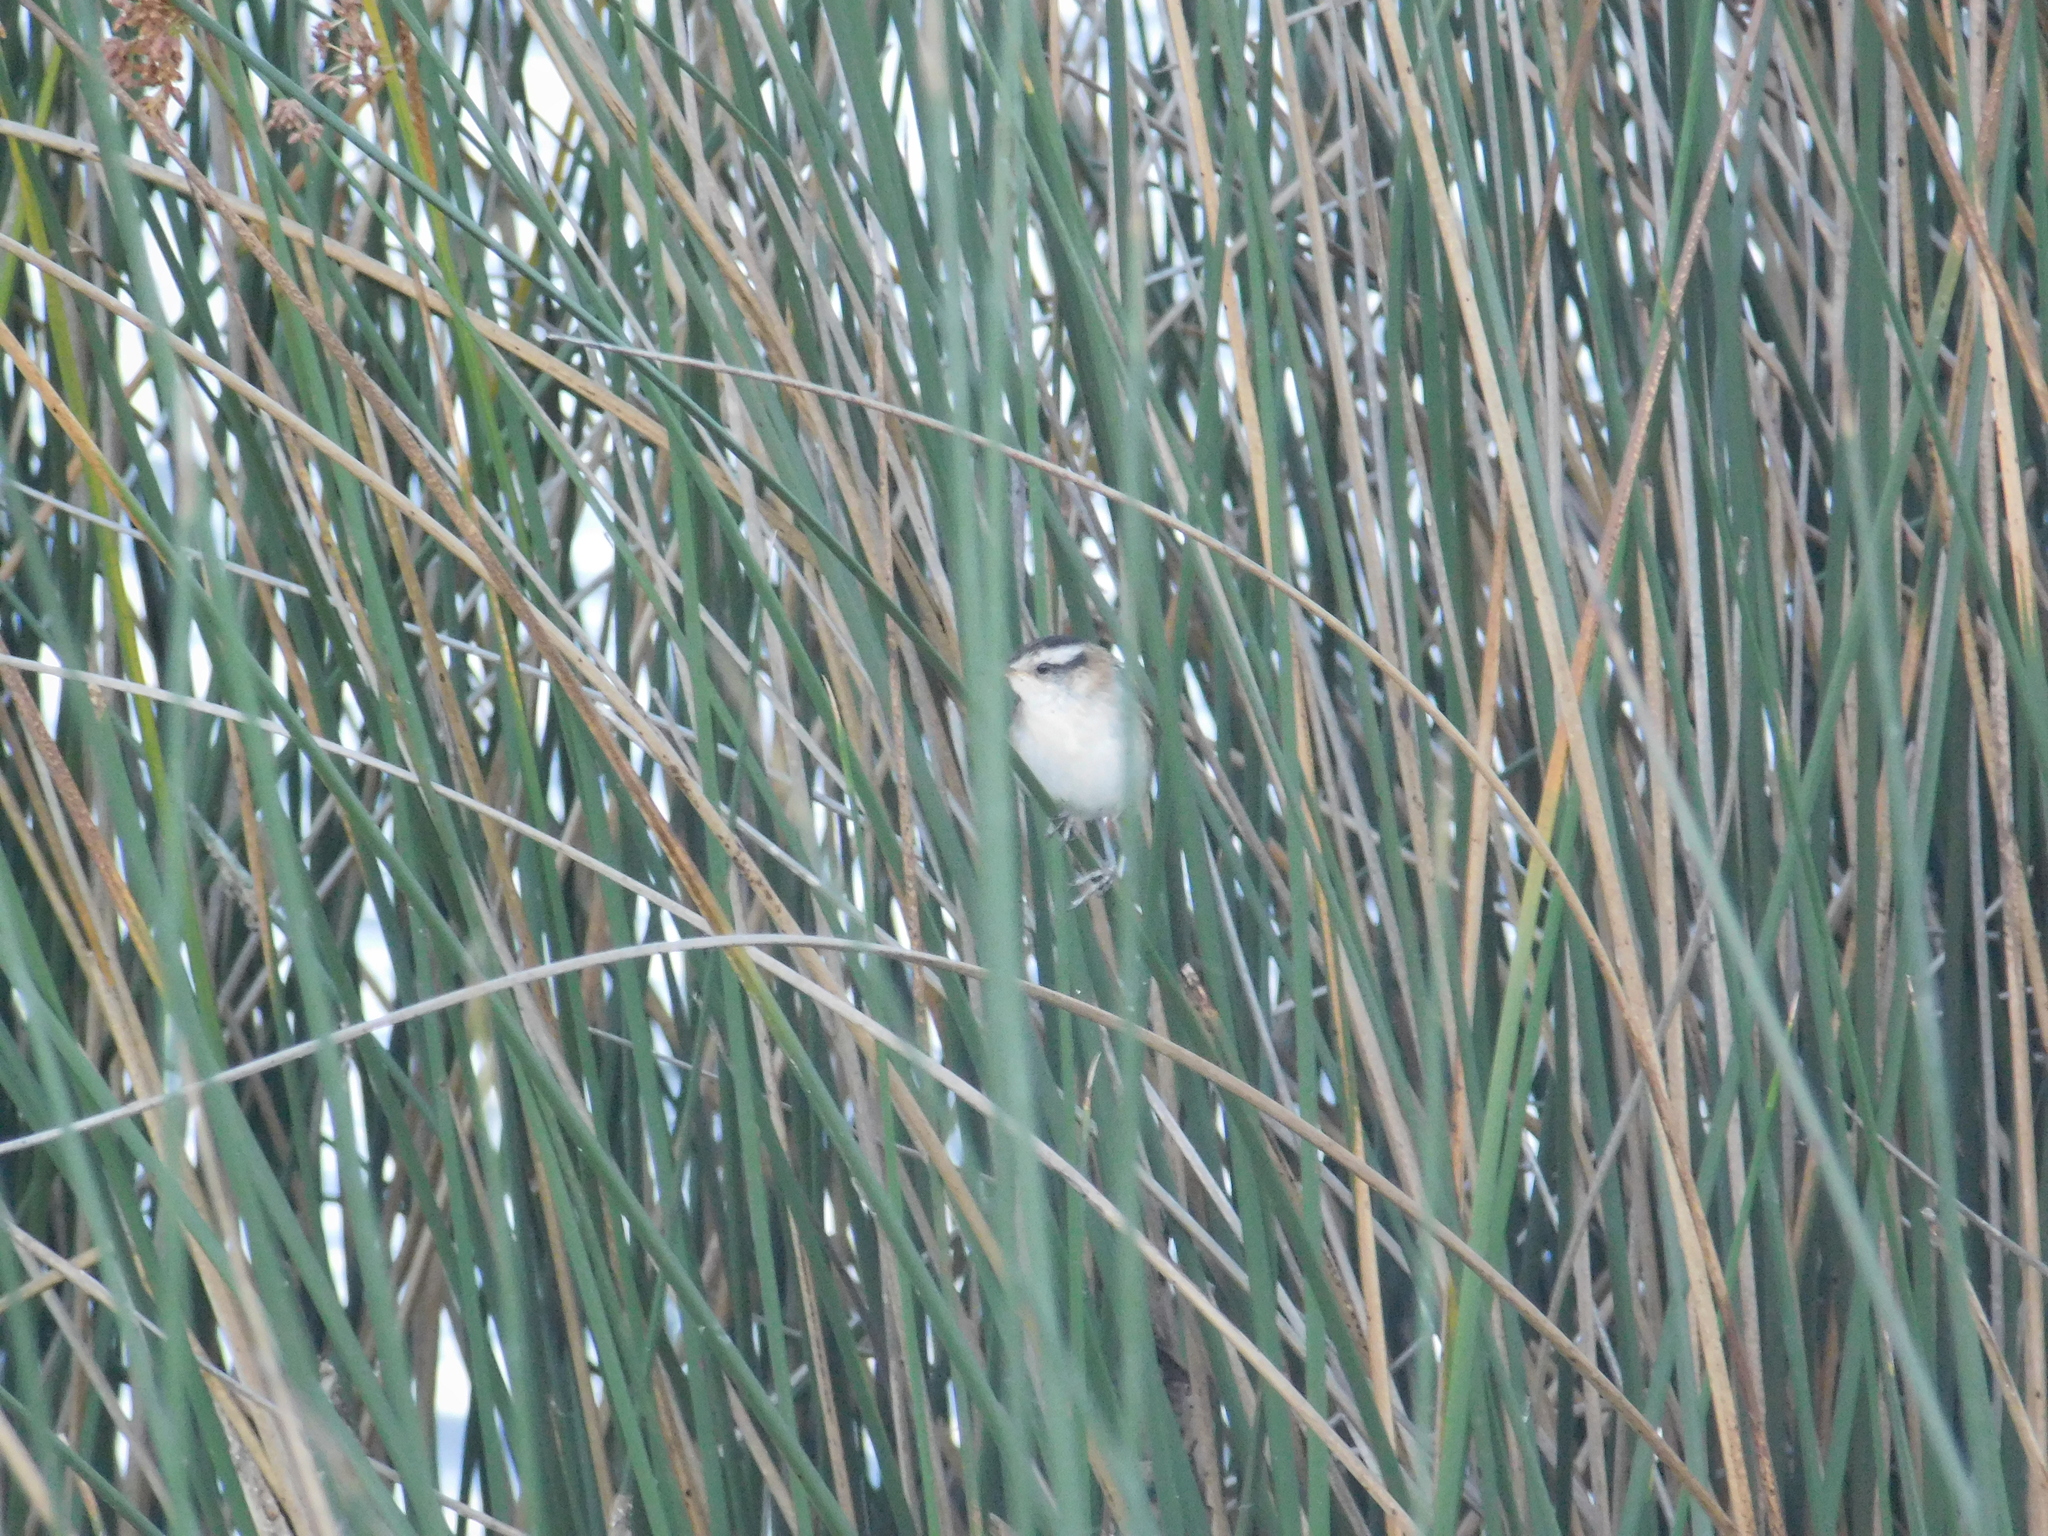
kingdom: Animalia
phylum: Chordata
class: Aves
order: Passeriformes
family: Furnariidae
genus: Phleocryptes
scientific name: Phleocryptes melanops
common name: Wren-like rushbird
